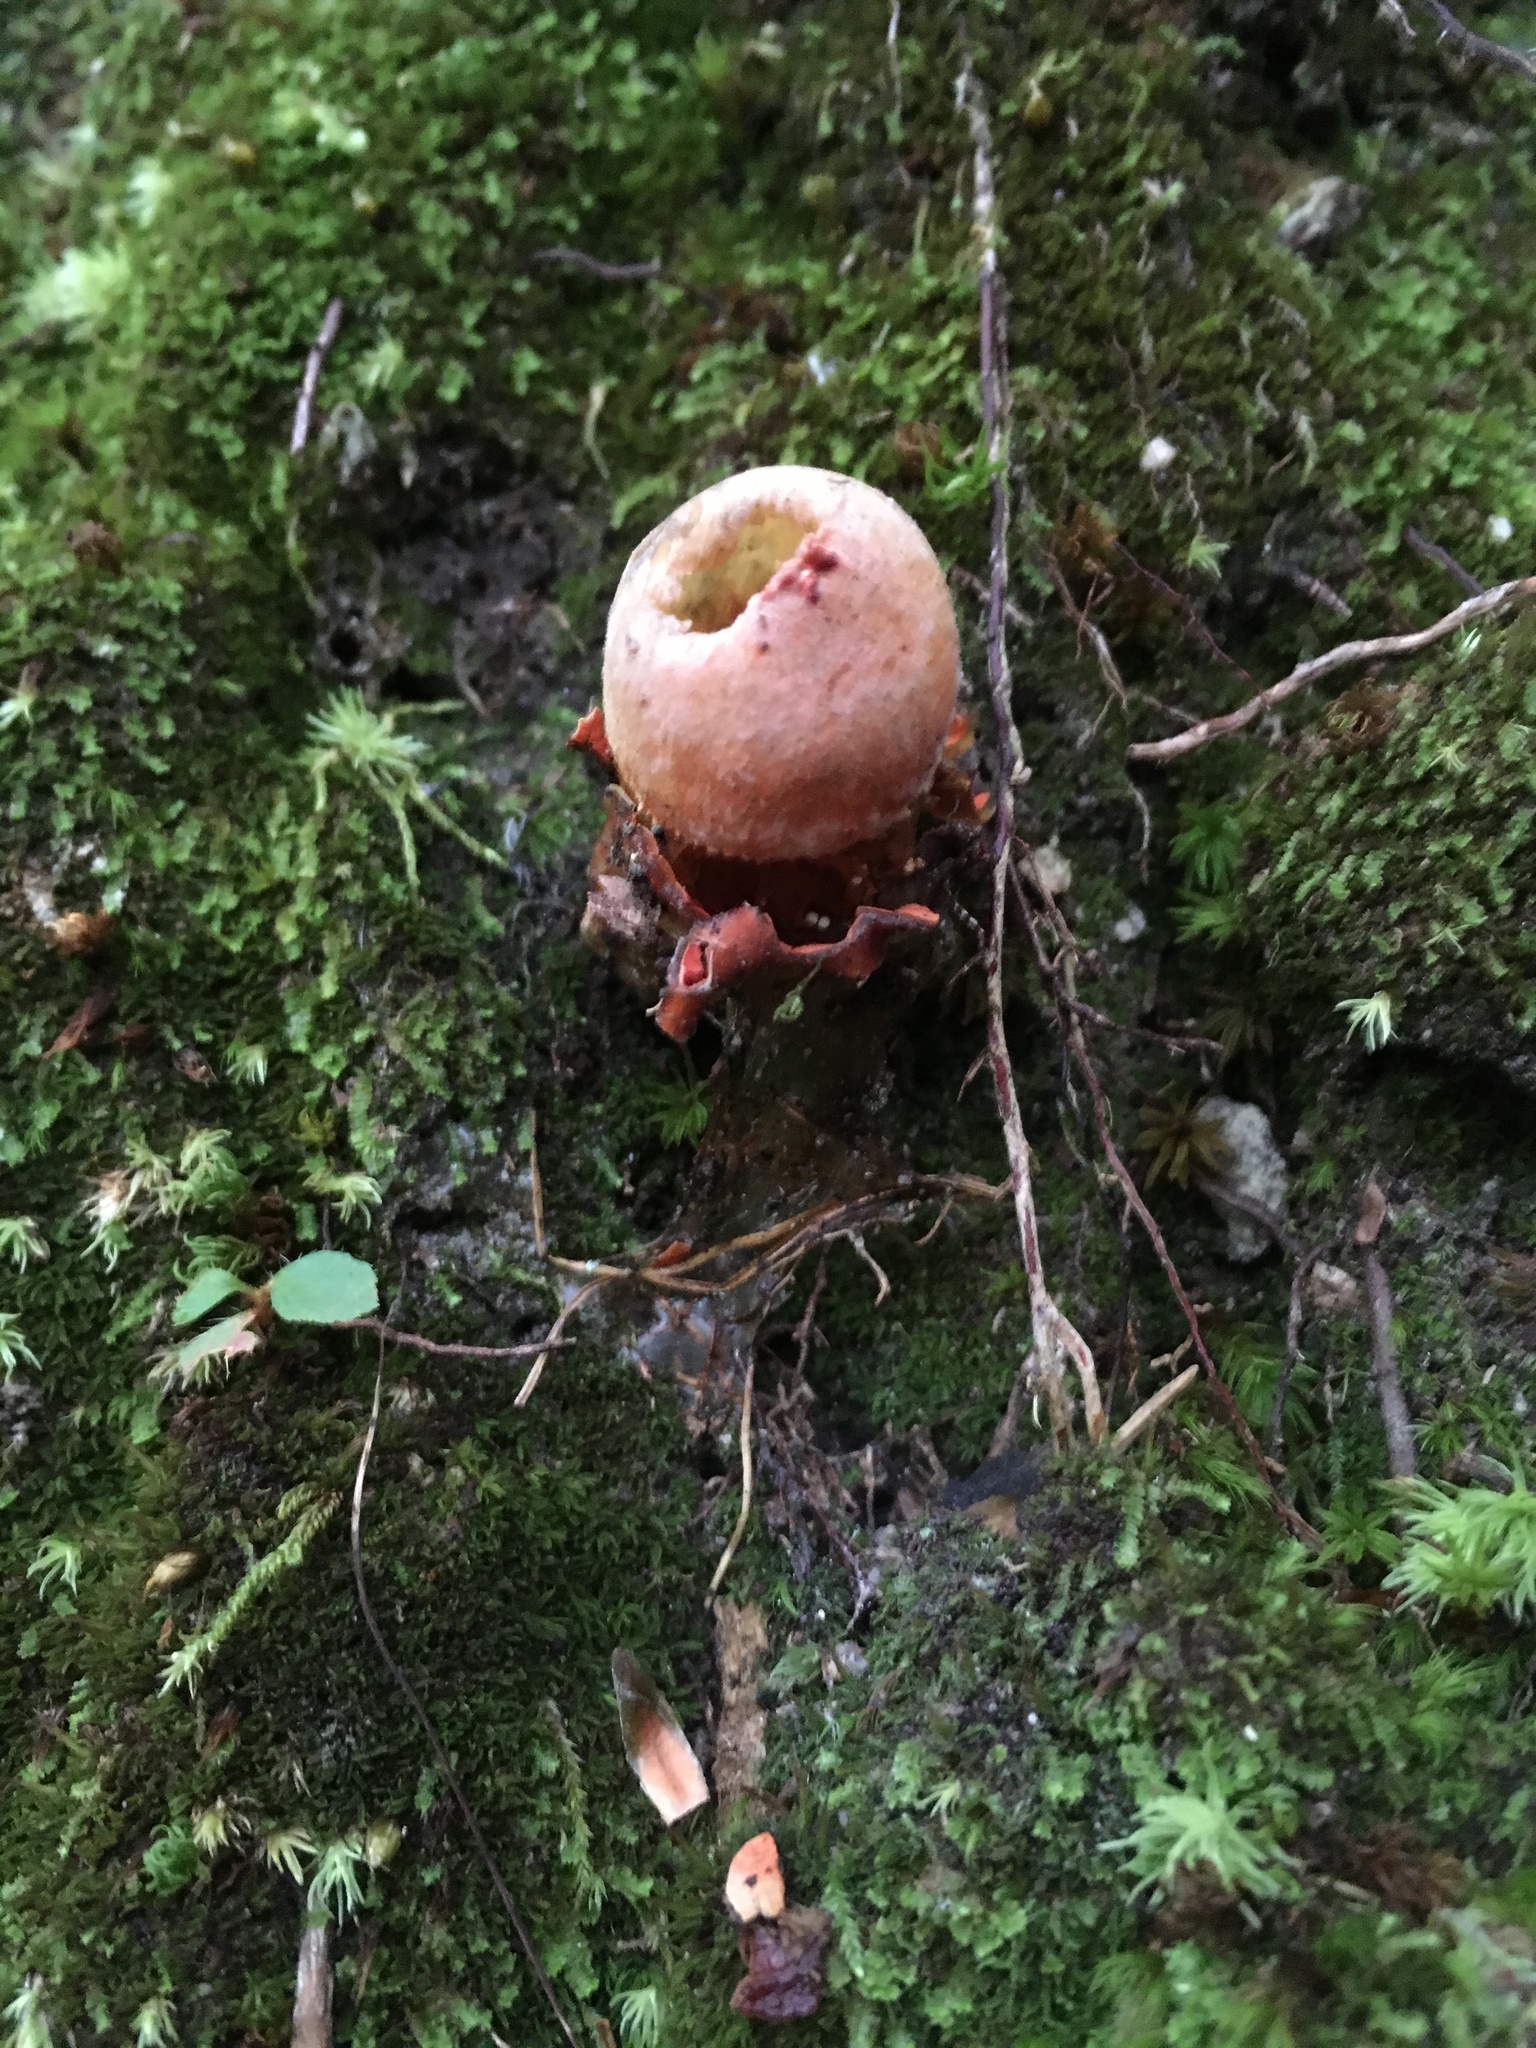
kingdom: Fungi
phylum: Basidiomycota
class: Agaricomycetes
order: Boletales
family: Calostomataceae
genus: Calostoma
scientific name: Calostoma cinnabarinum
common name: Stalked puffball-in-aspic
